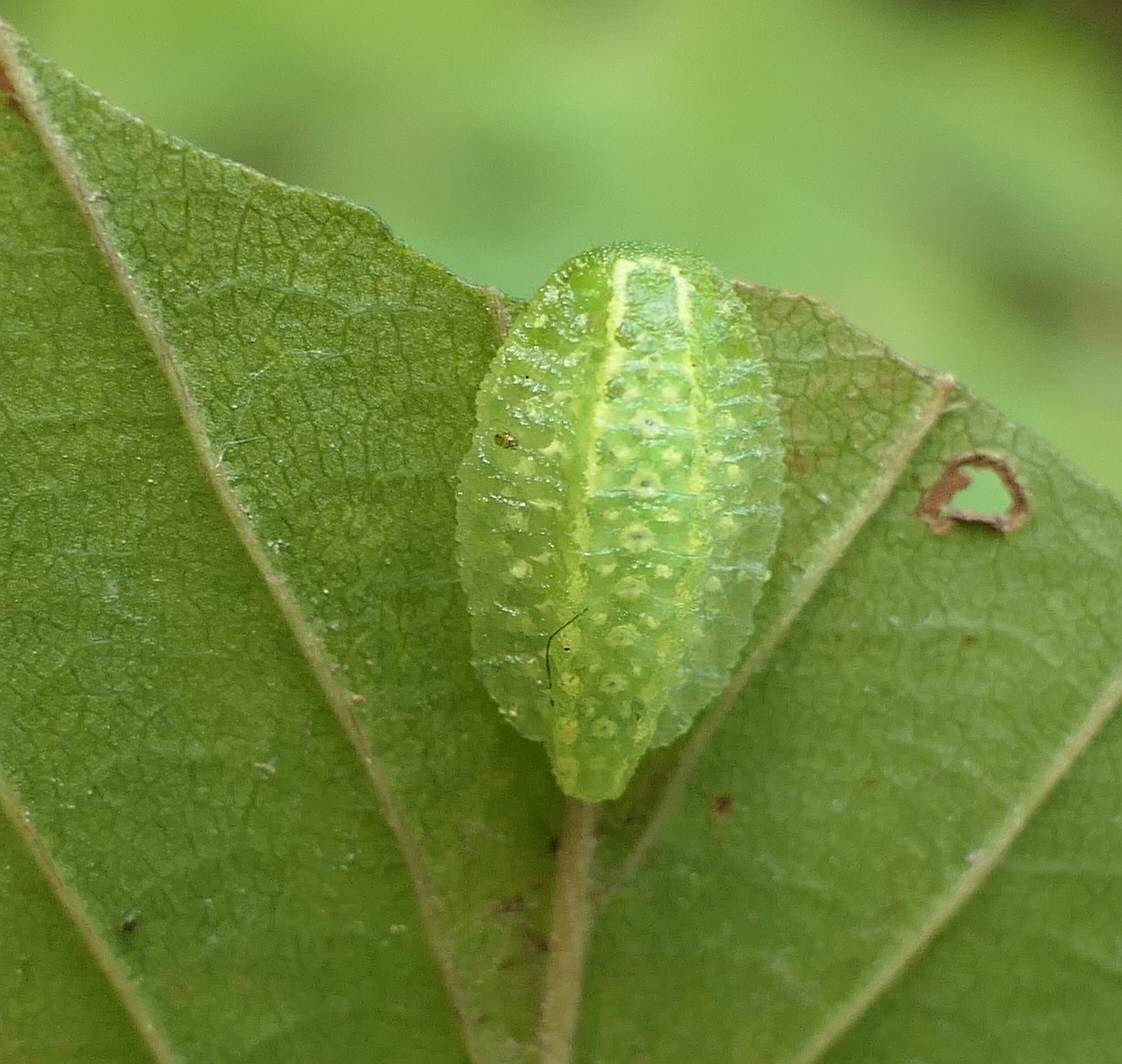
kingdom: Animalia
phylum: Arthropoda
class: Insecta
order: Lepidoptera
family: Limacodidae
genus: Lithacodes
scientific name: Lithacodes fasciola
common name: Yellow-shouldered slug moth
